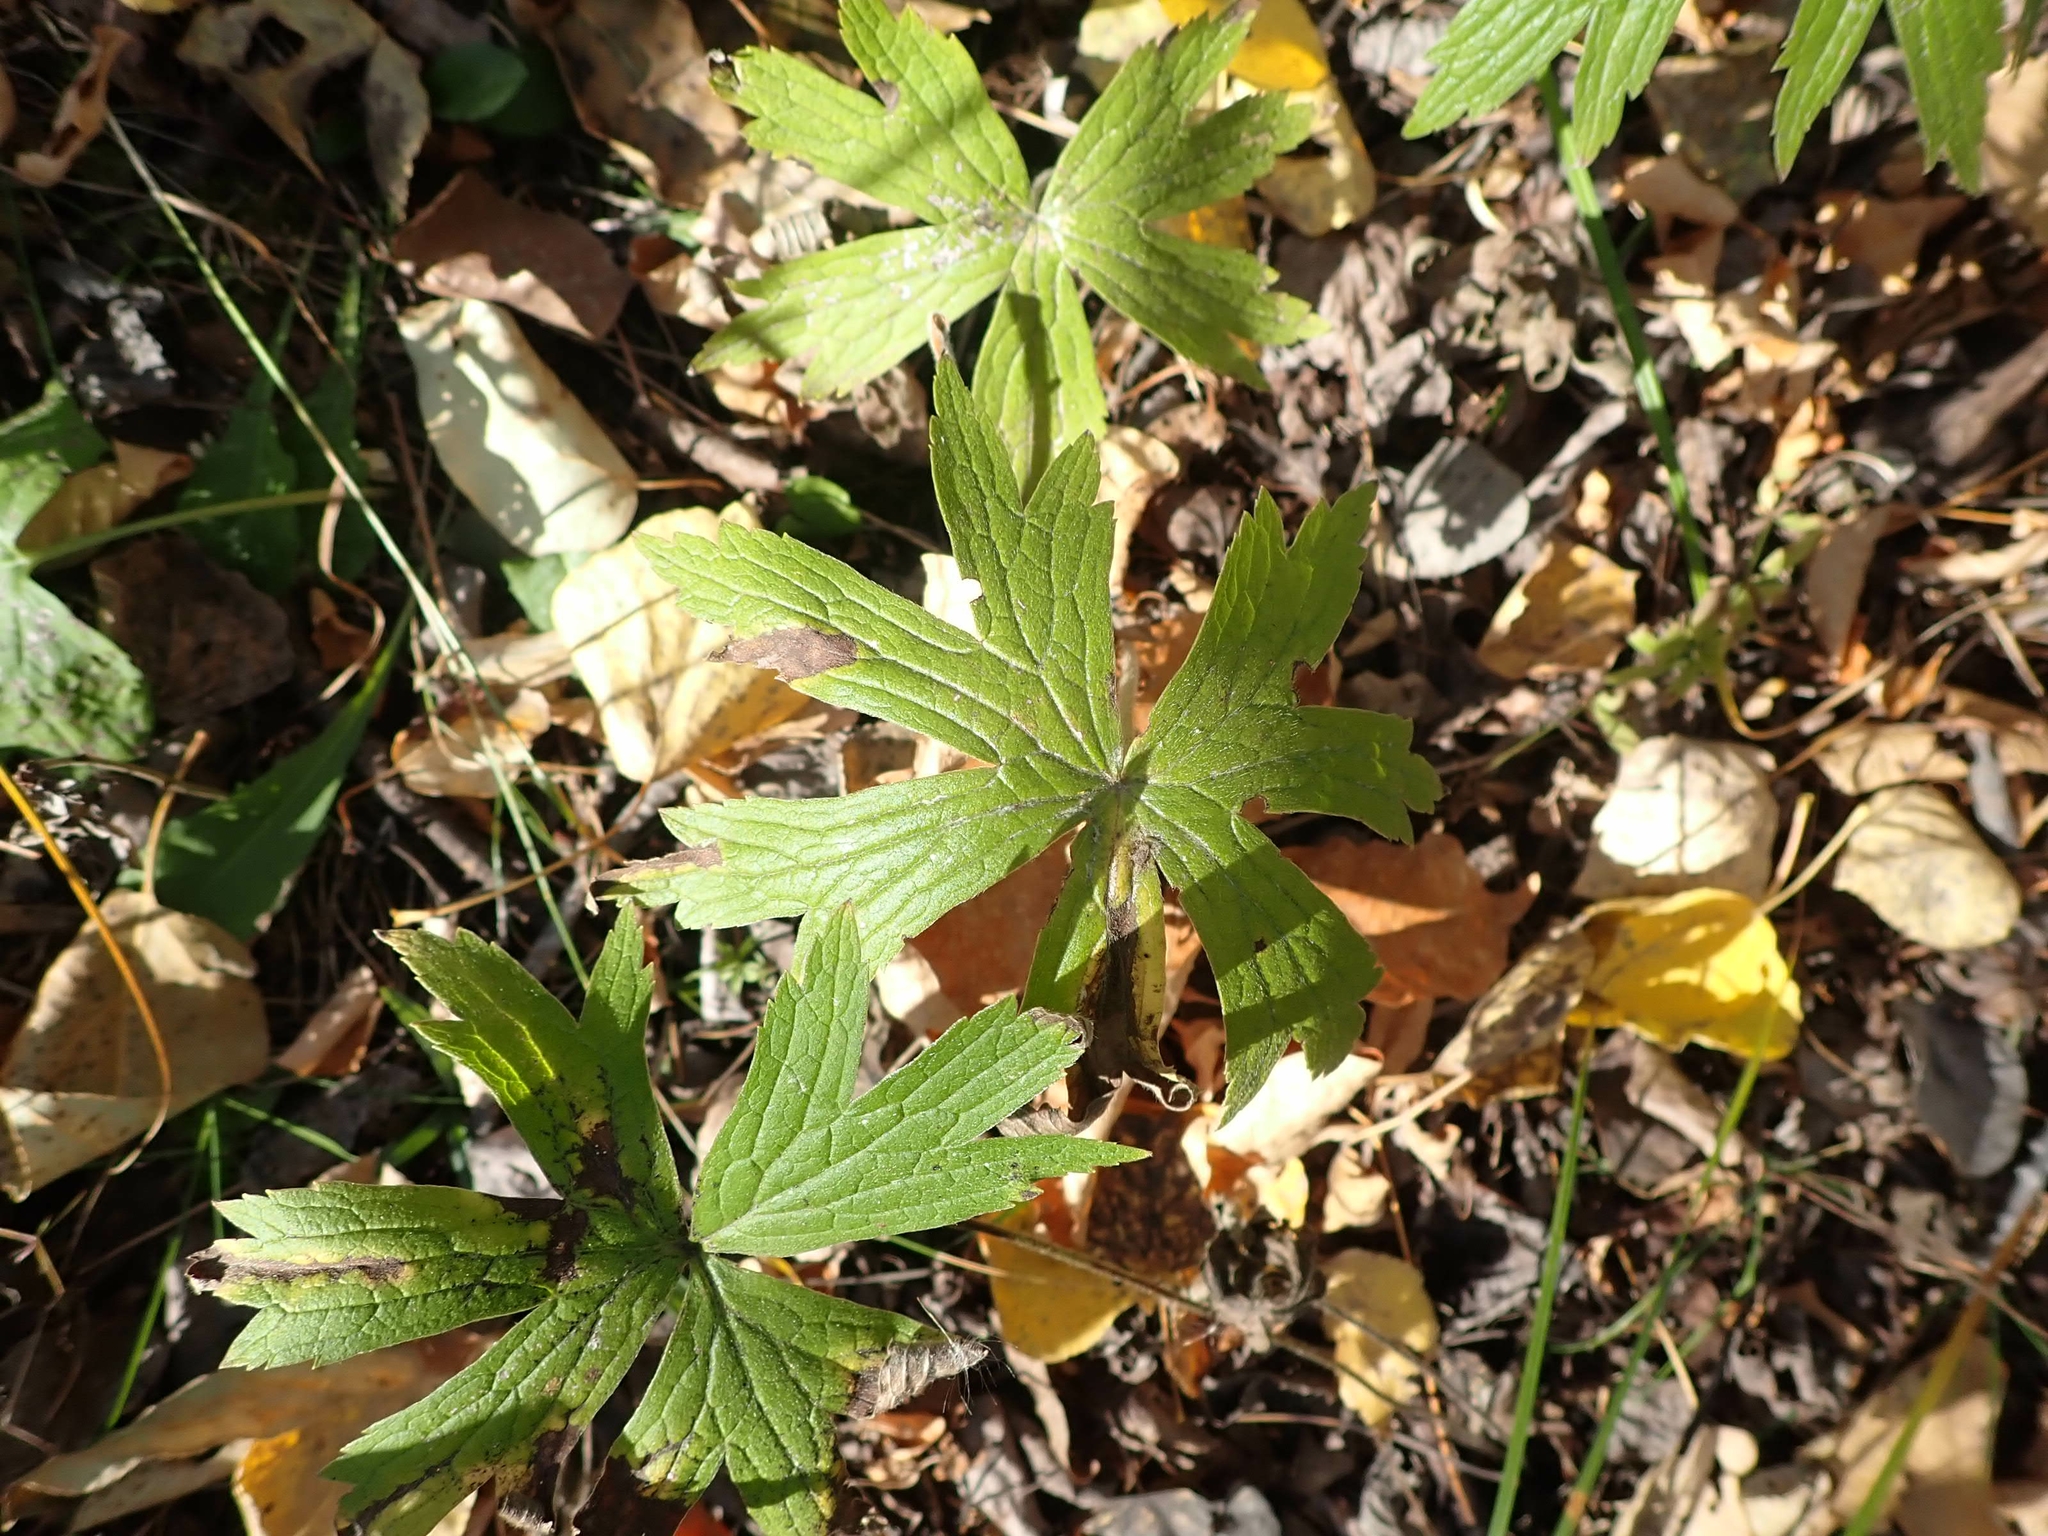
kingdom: Plantae
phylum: Tracheophyta
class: Magnoliopsida
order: Ranunculales
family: Ranunculaceae
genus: Anemonastrum
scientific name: Anemonastrum canadense
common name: Canada anemone
